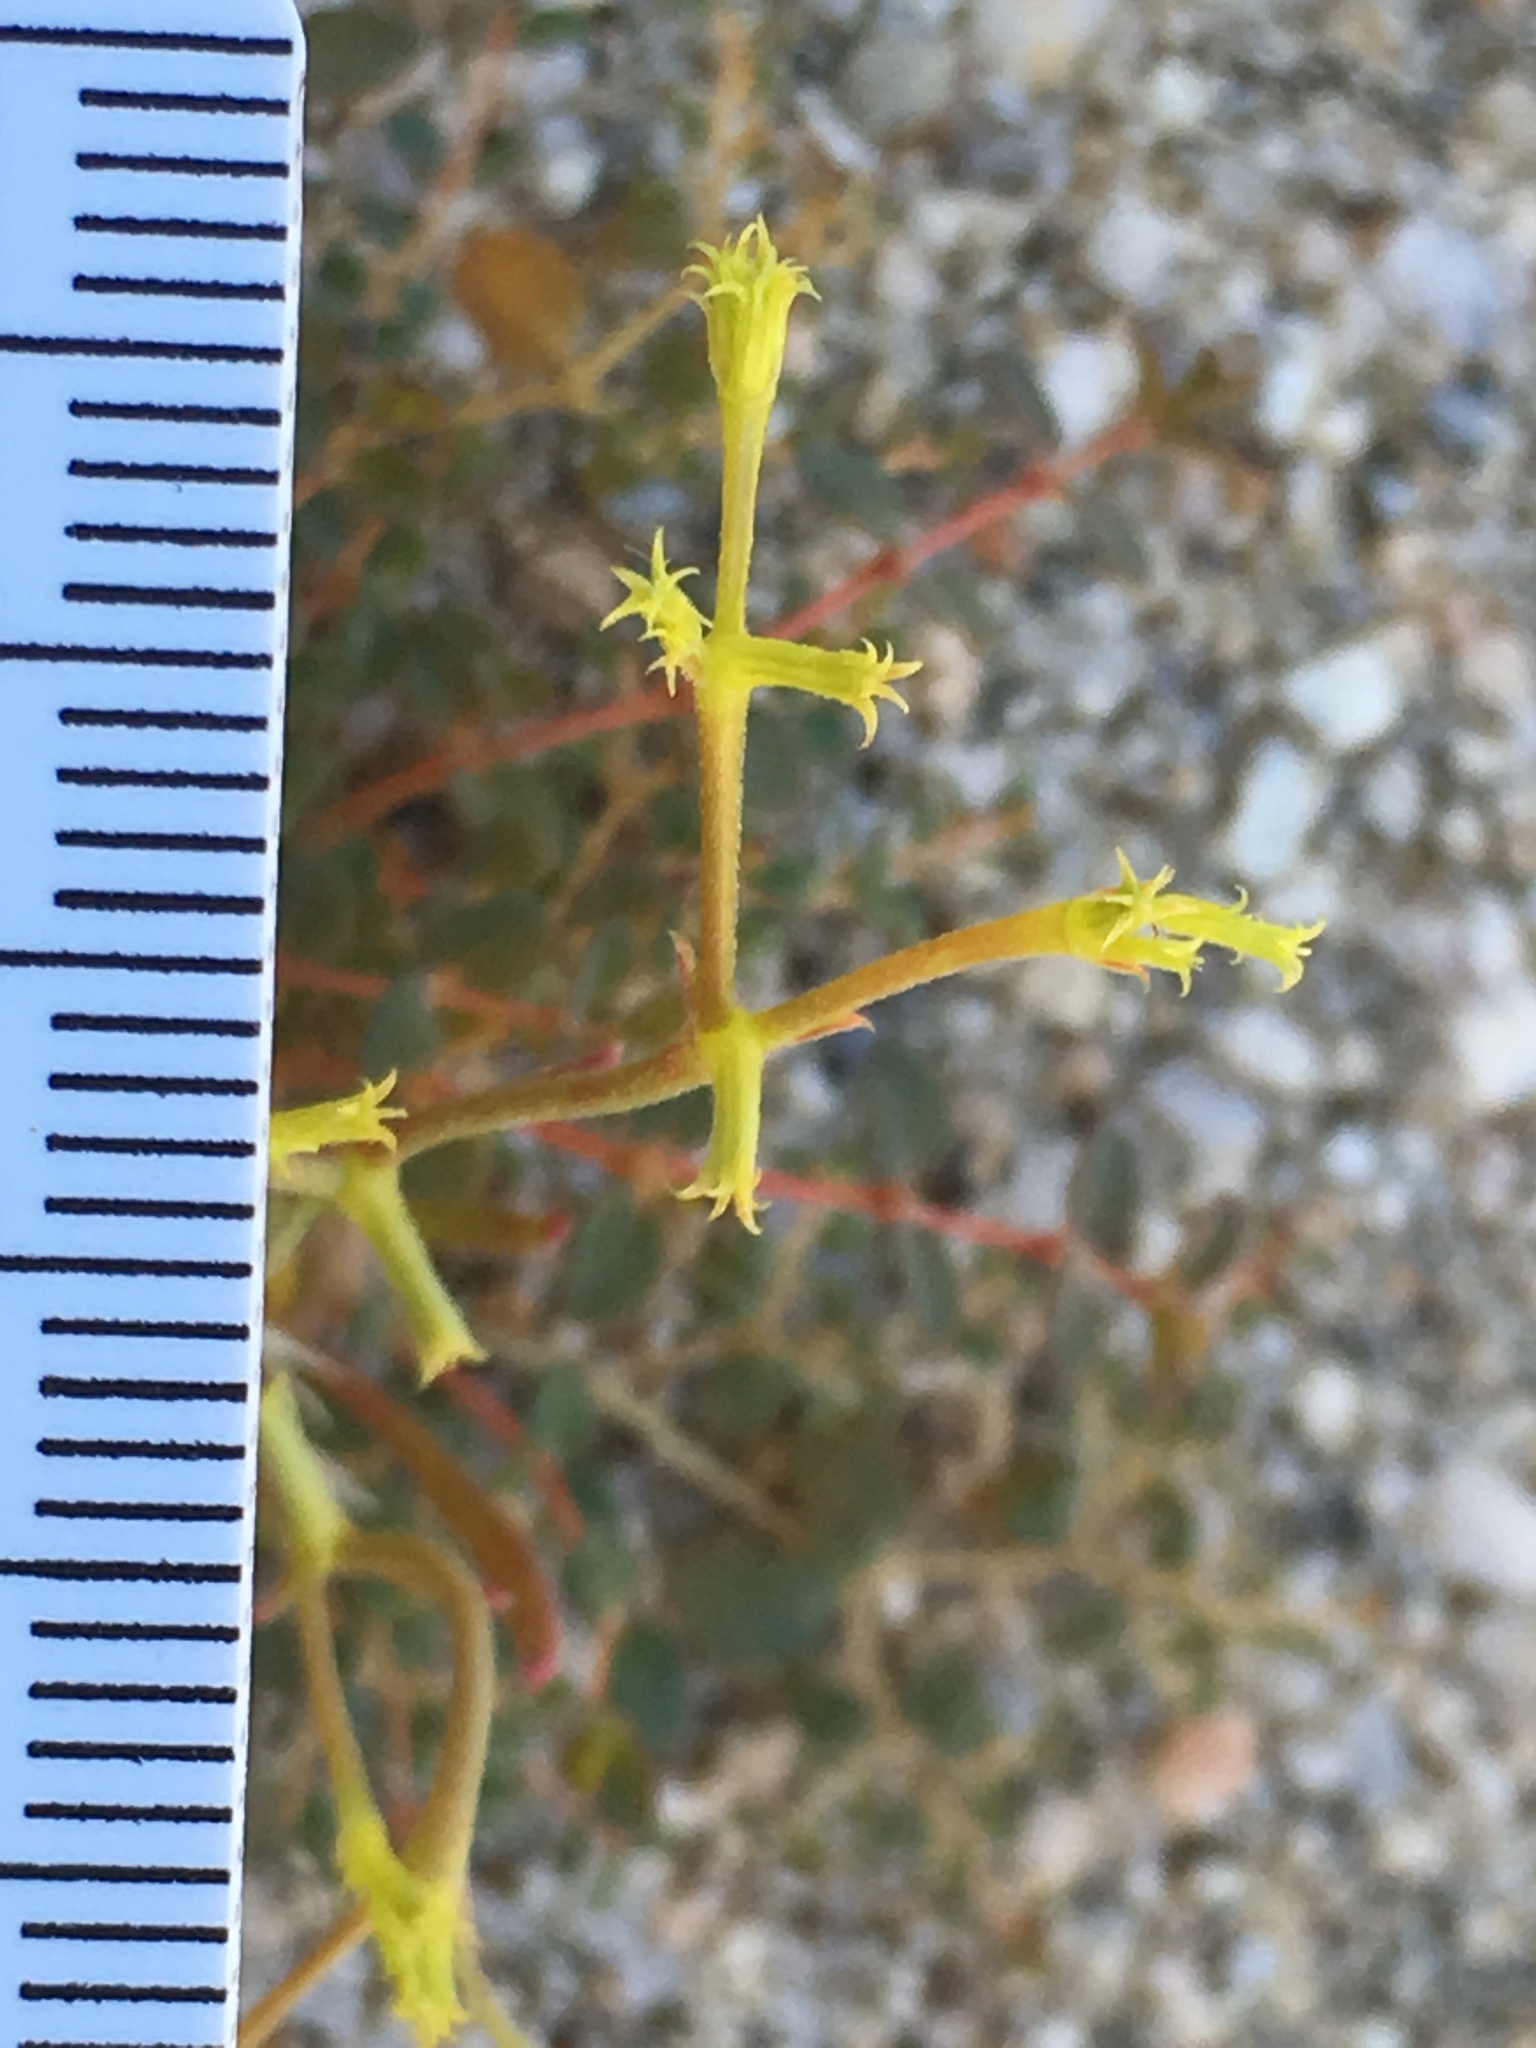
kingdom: Plantae
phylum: Tracheophyta
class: Magnoliopsida
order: Caryophyllales
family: Polygonaceae
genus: Chorizanthe
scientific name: Chorizanthe brevicornu
